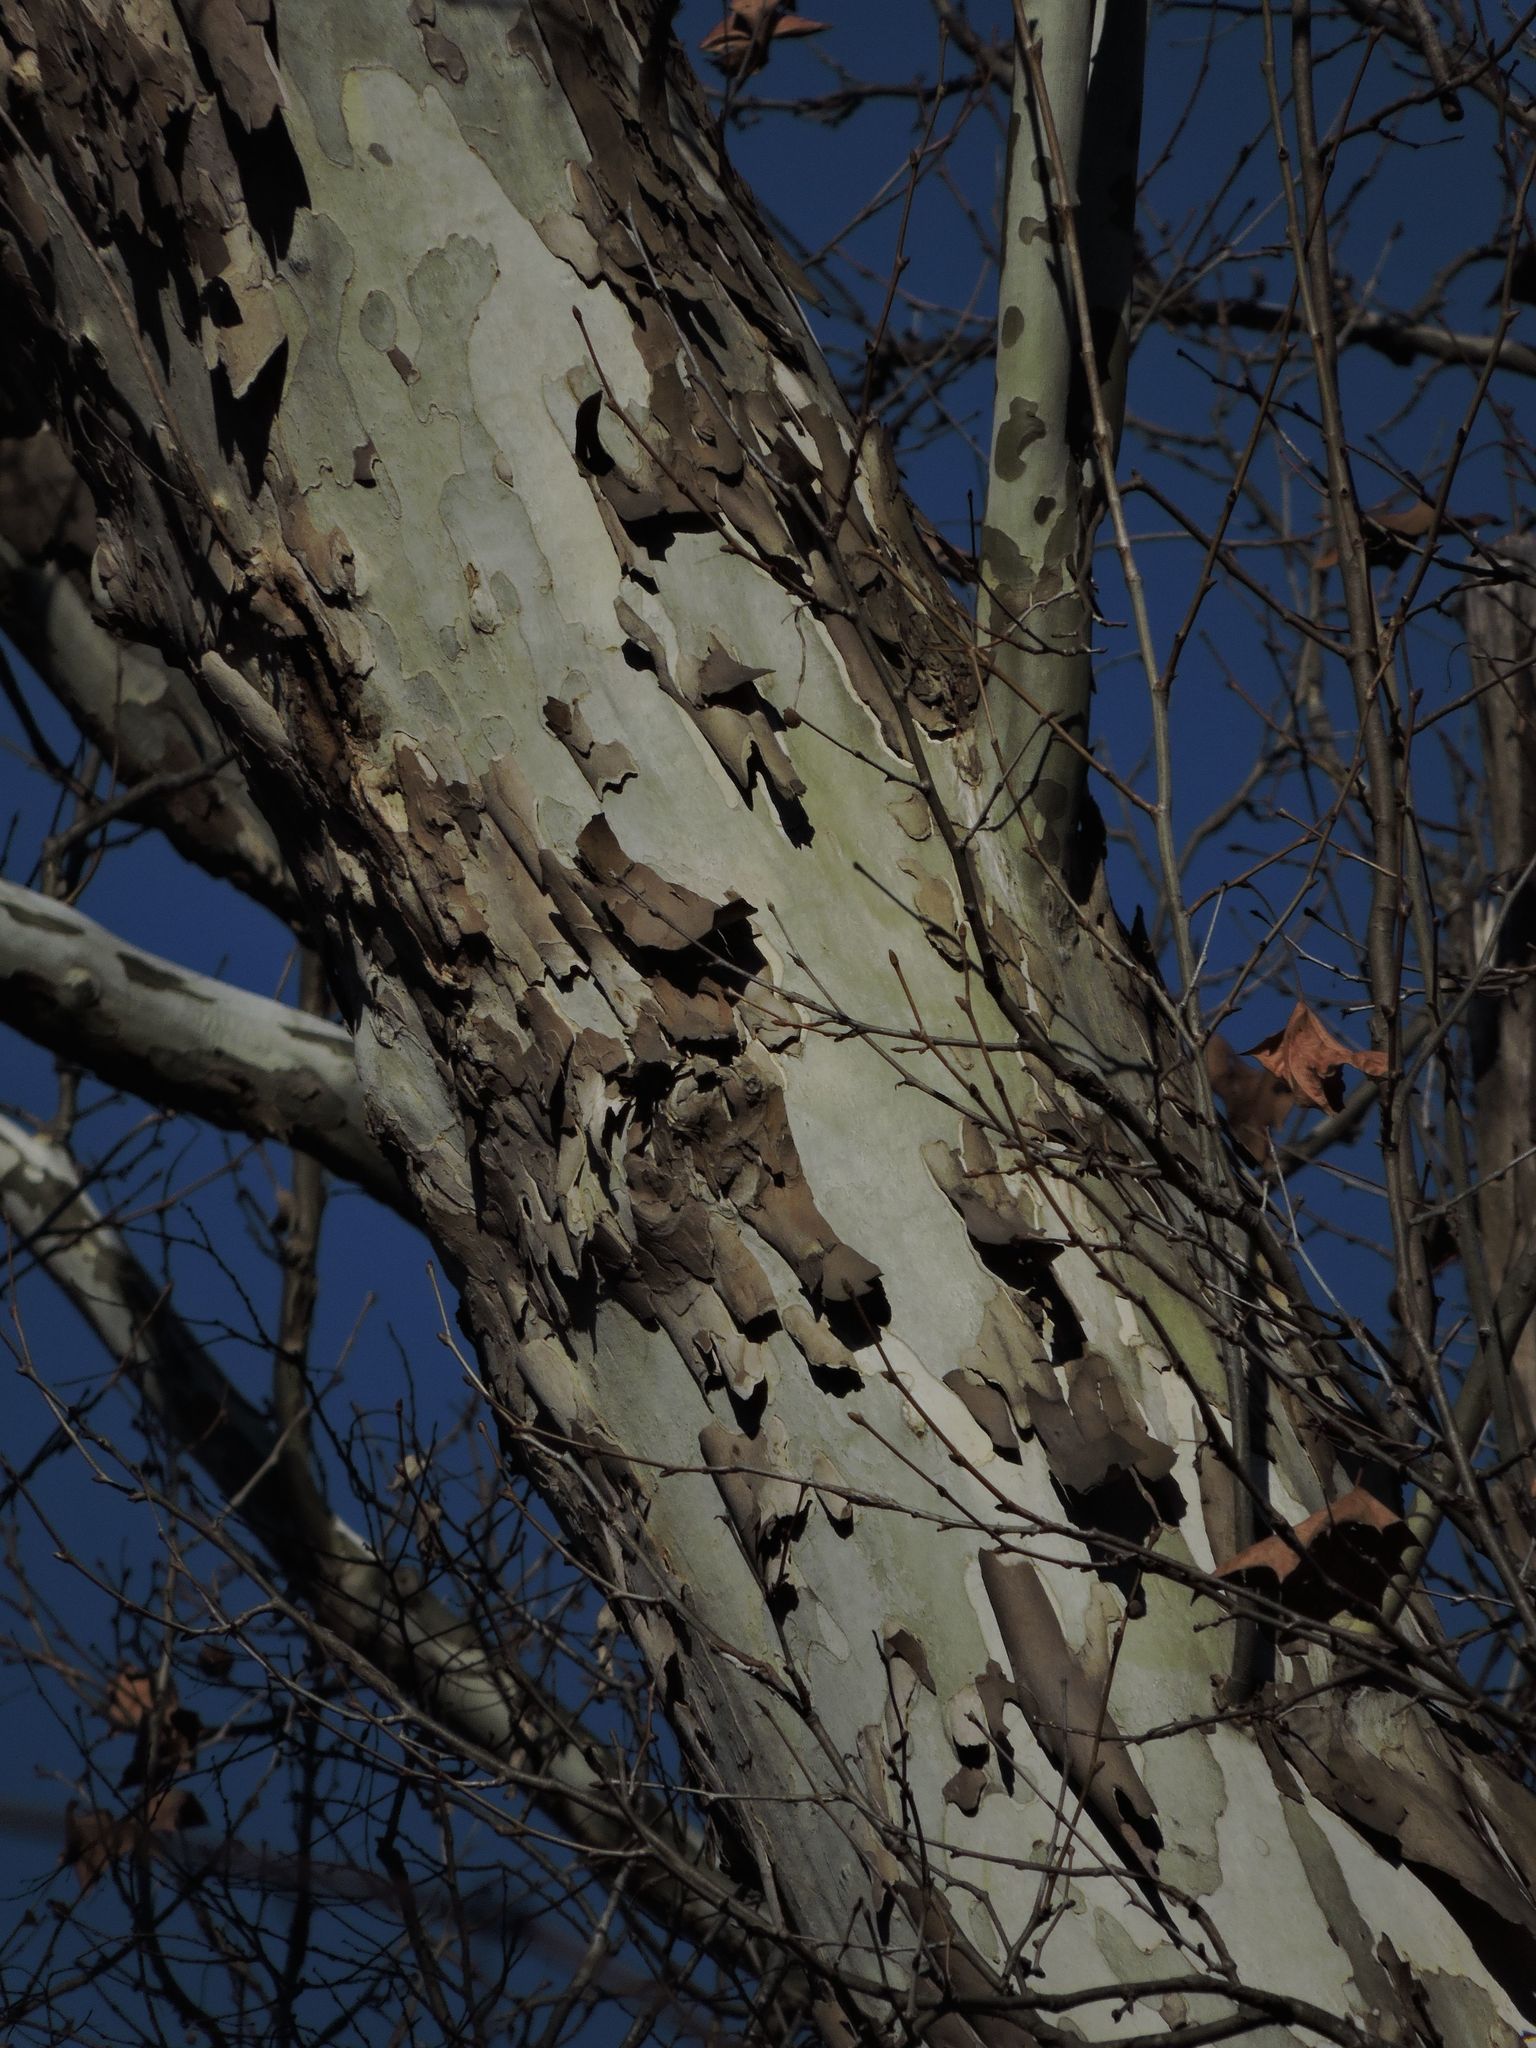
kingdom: Plantae
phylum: Tracheophyta
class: Magnoliopsida
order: Proteales
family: Platanaceae
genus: Platanus
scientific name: Platanus occidentalis
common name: American sycamore
